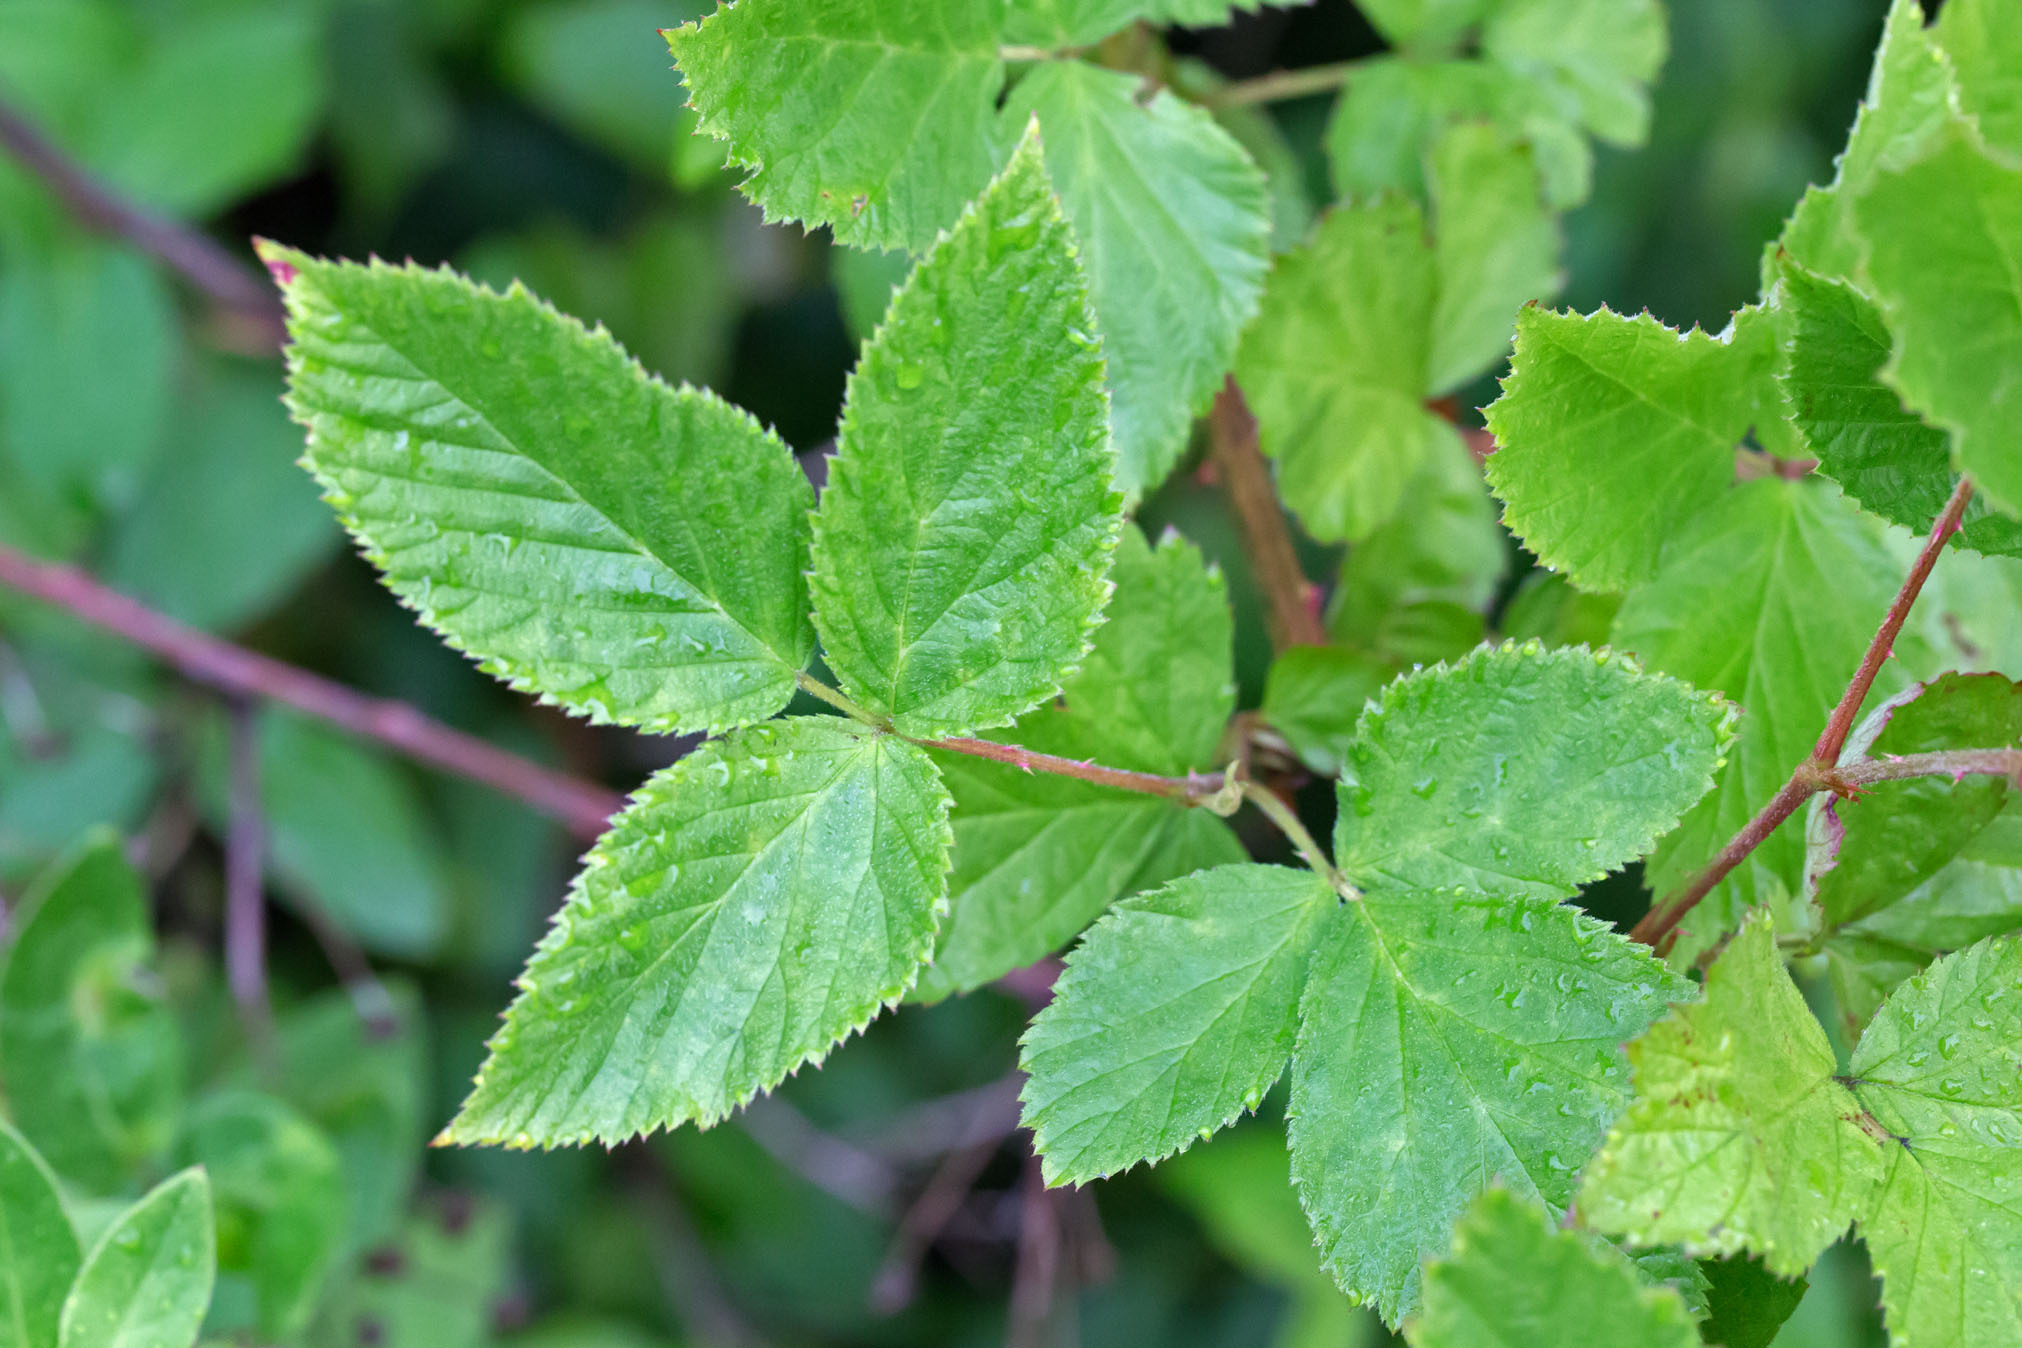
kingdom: Plantae
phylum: Tracheophyta
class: Magnoliopsida
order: Rosales
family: Rosaceae
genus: Rubus
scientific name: Rubus allegheniensis
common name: Allegheny blackberry
